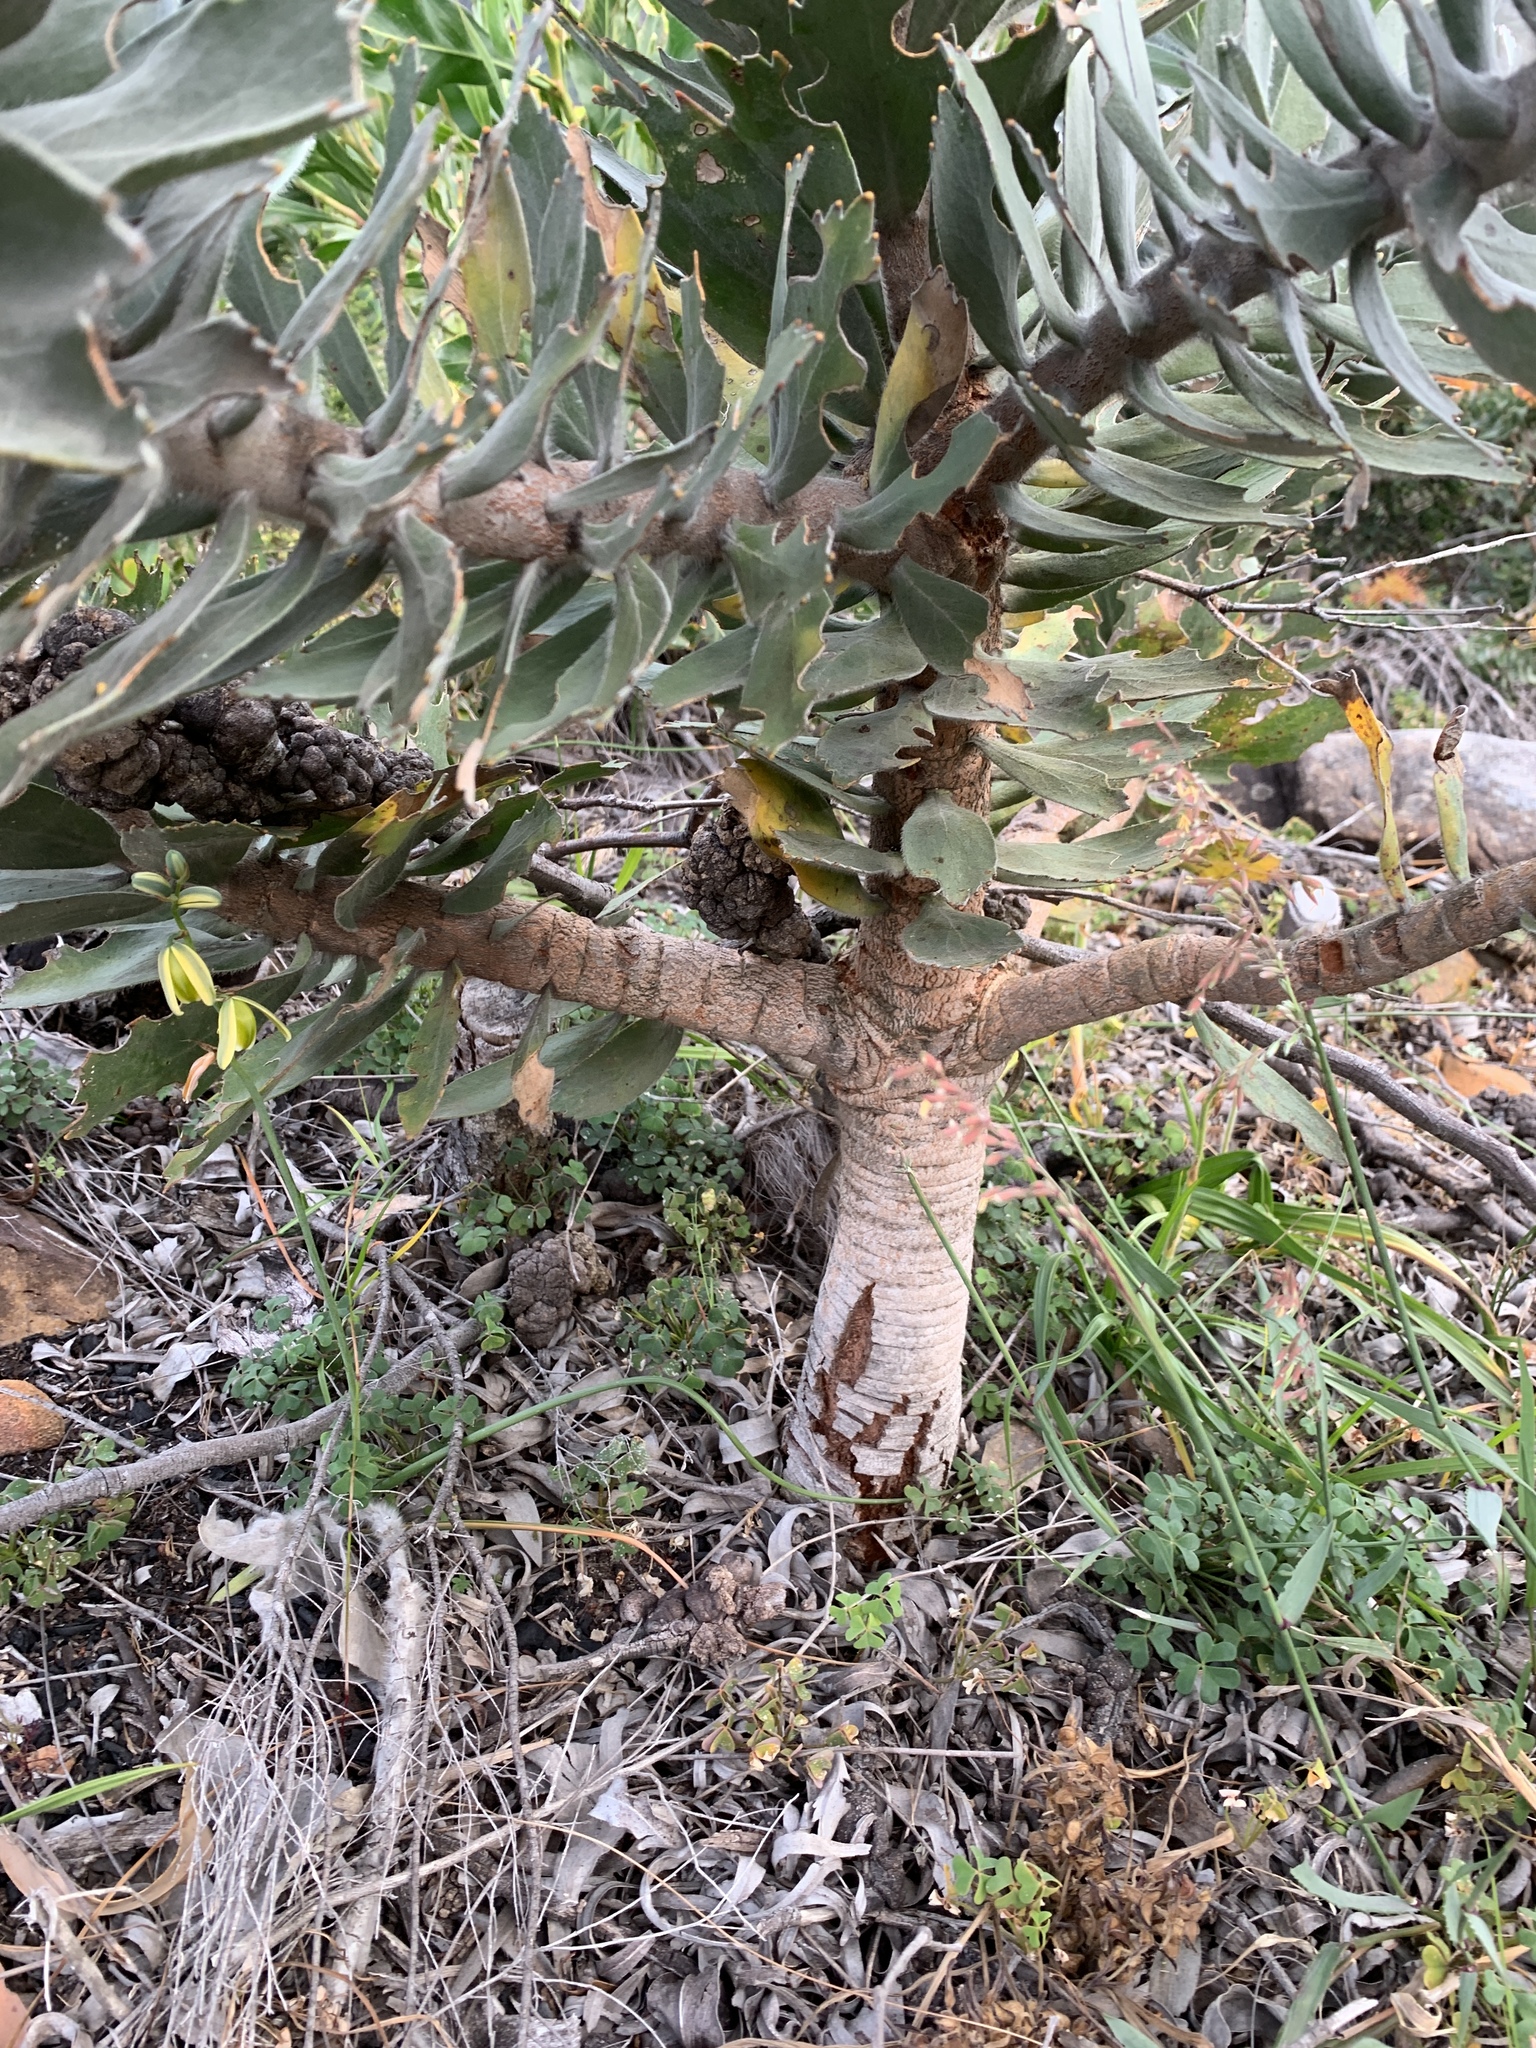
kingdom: Plantae
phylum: Tracheophyta
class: Magnoliopsida
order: Proteales
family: Proteaceae
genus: Leucospermum
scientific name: Leucospermum conocarpodendron
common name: Tree pincushion
